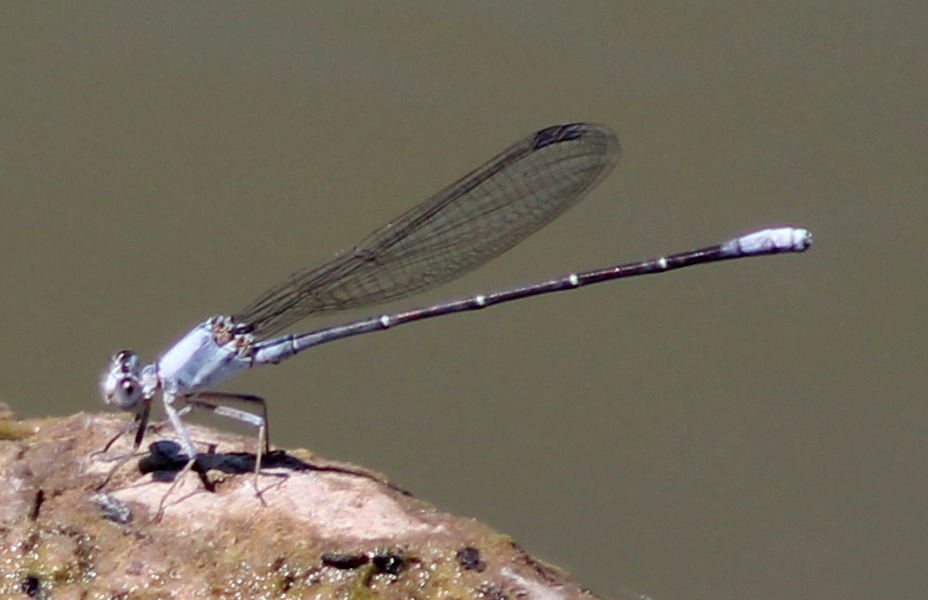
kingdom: Animalia
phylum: Arthropoda
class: Insecta
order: Odonata
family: Coenagrionidae
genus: Argia
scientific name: Argia moesta
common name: Powdered dancer
